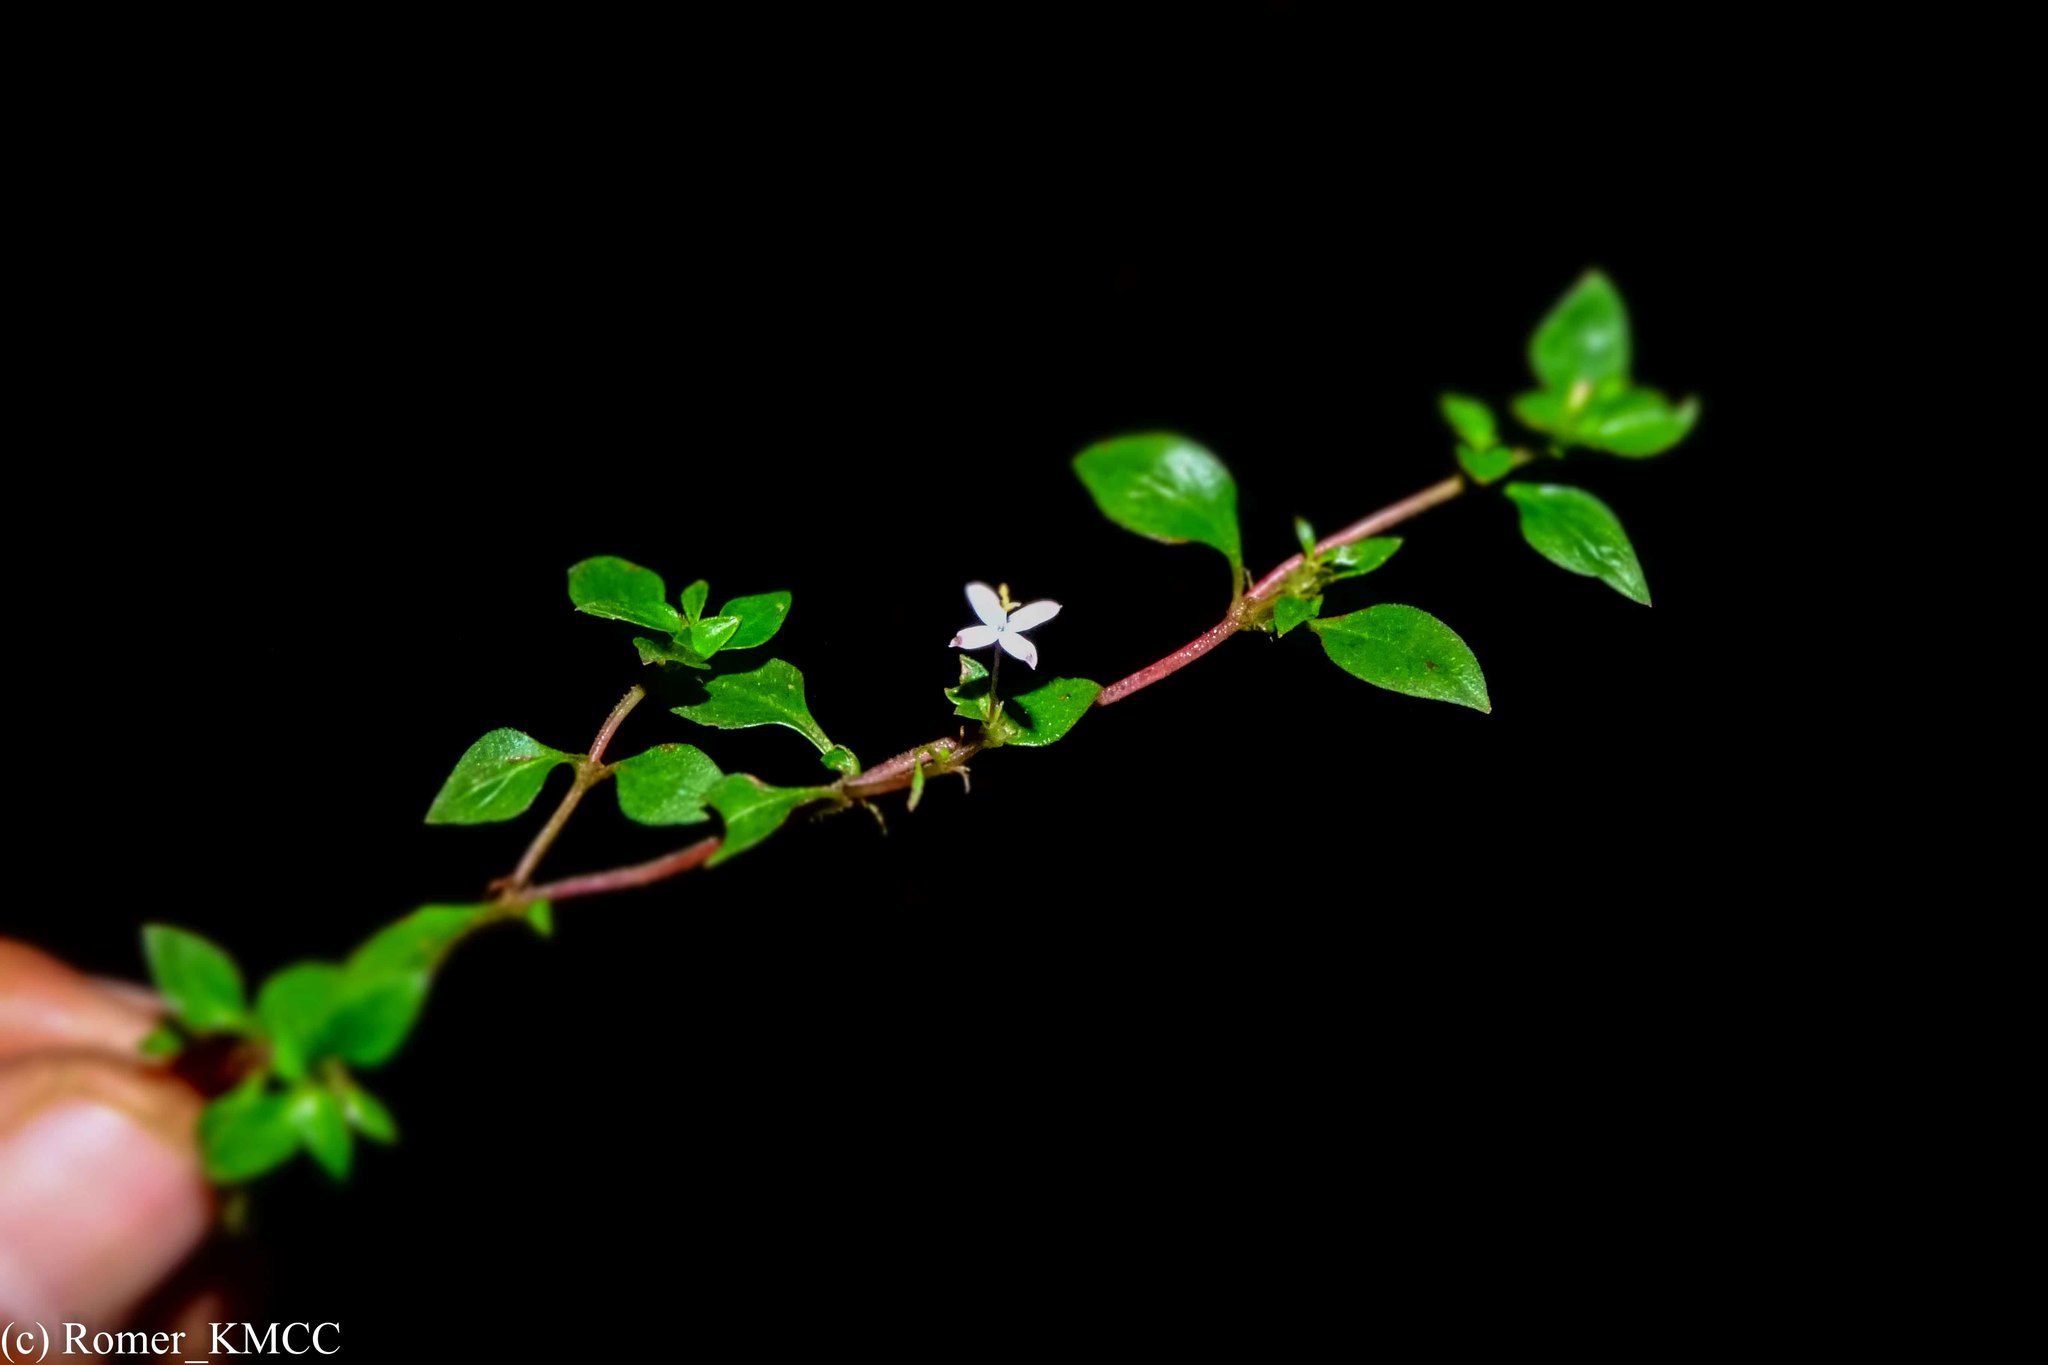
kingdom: Plantae
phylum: Tracheophyta
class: Magnoliopsida
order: Gentianales
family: Rubiaceae
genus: Otiophora
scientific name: Otiophora pauciflora
